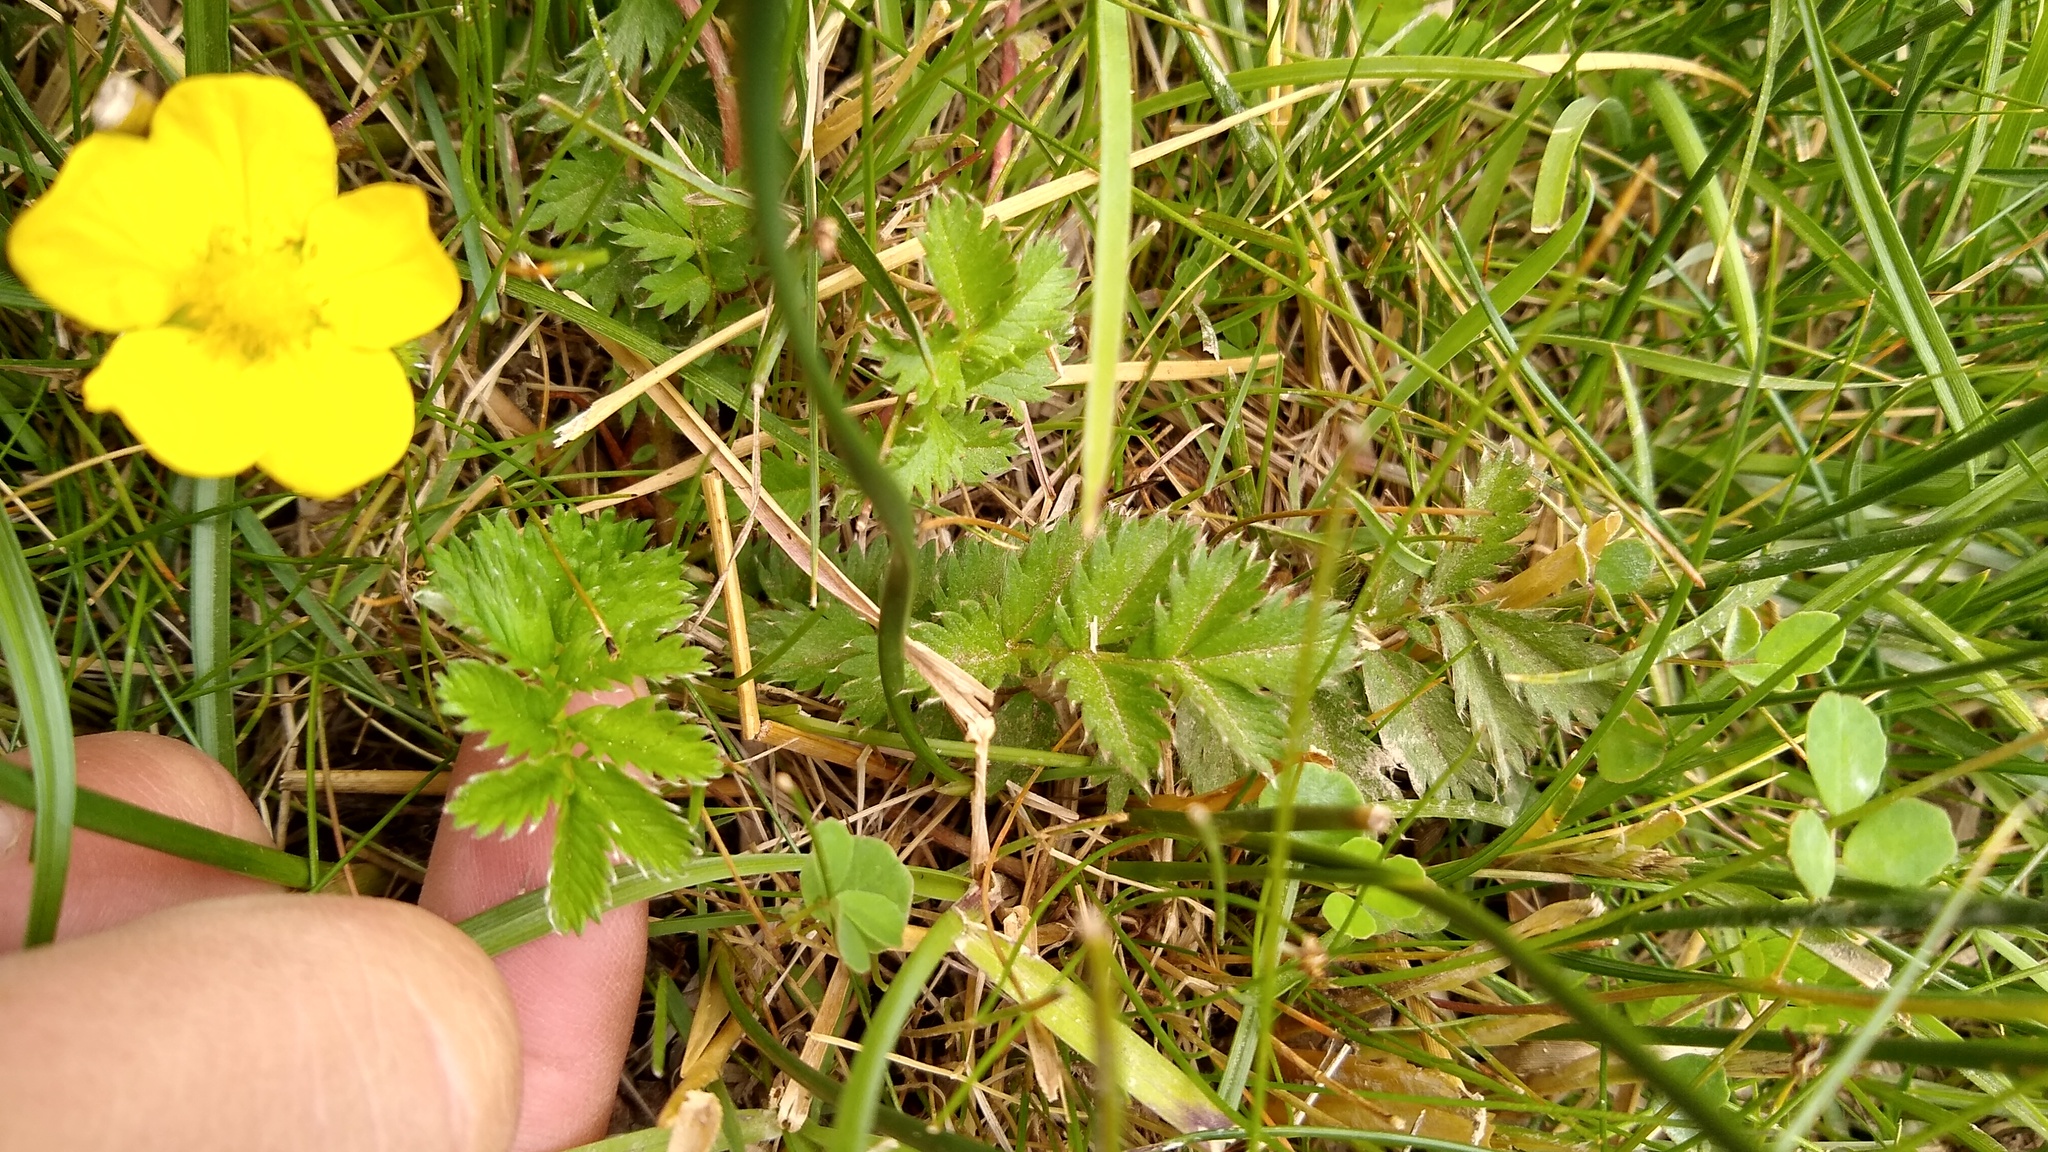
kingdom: Plantae
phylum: Tracheophyta
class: Magnoliopsida
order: Rosales
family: Rosaceae
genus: Argentina
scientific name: Argentina anserina
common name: Common silverweed
